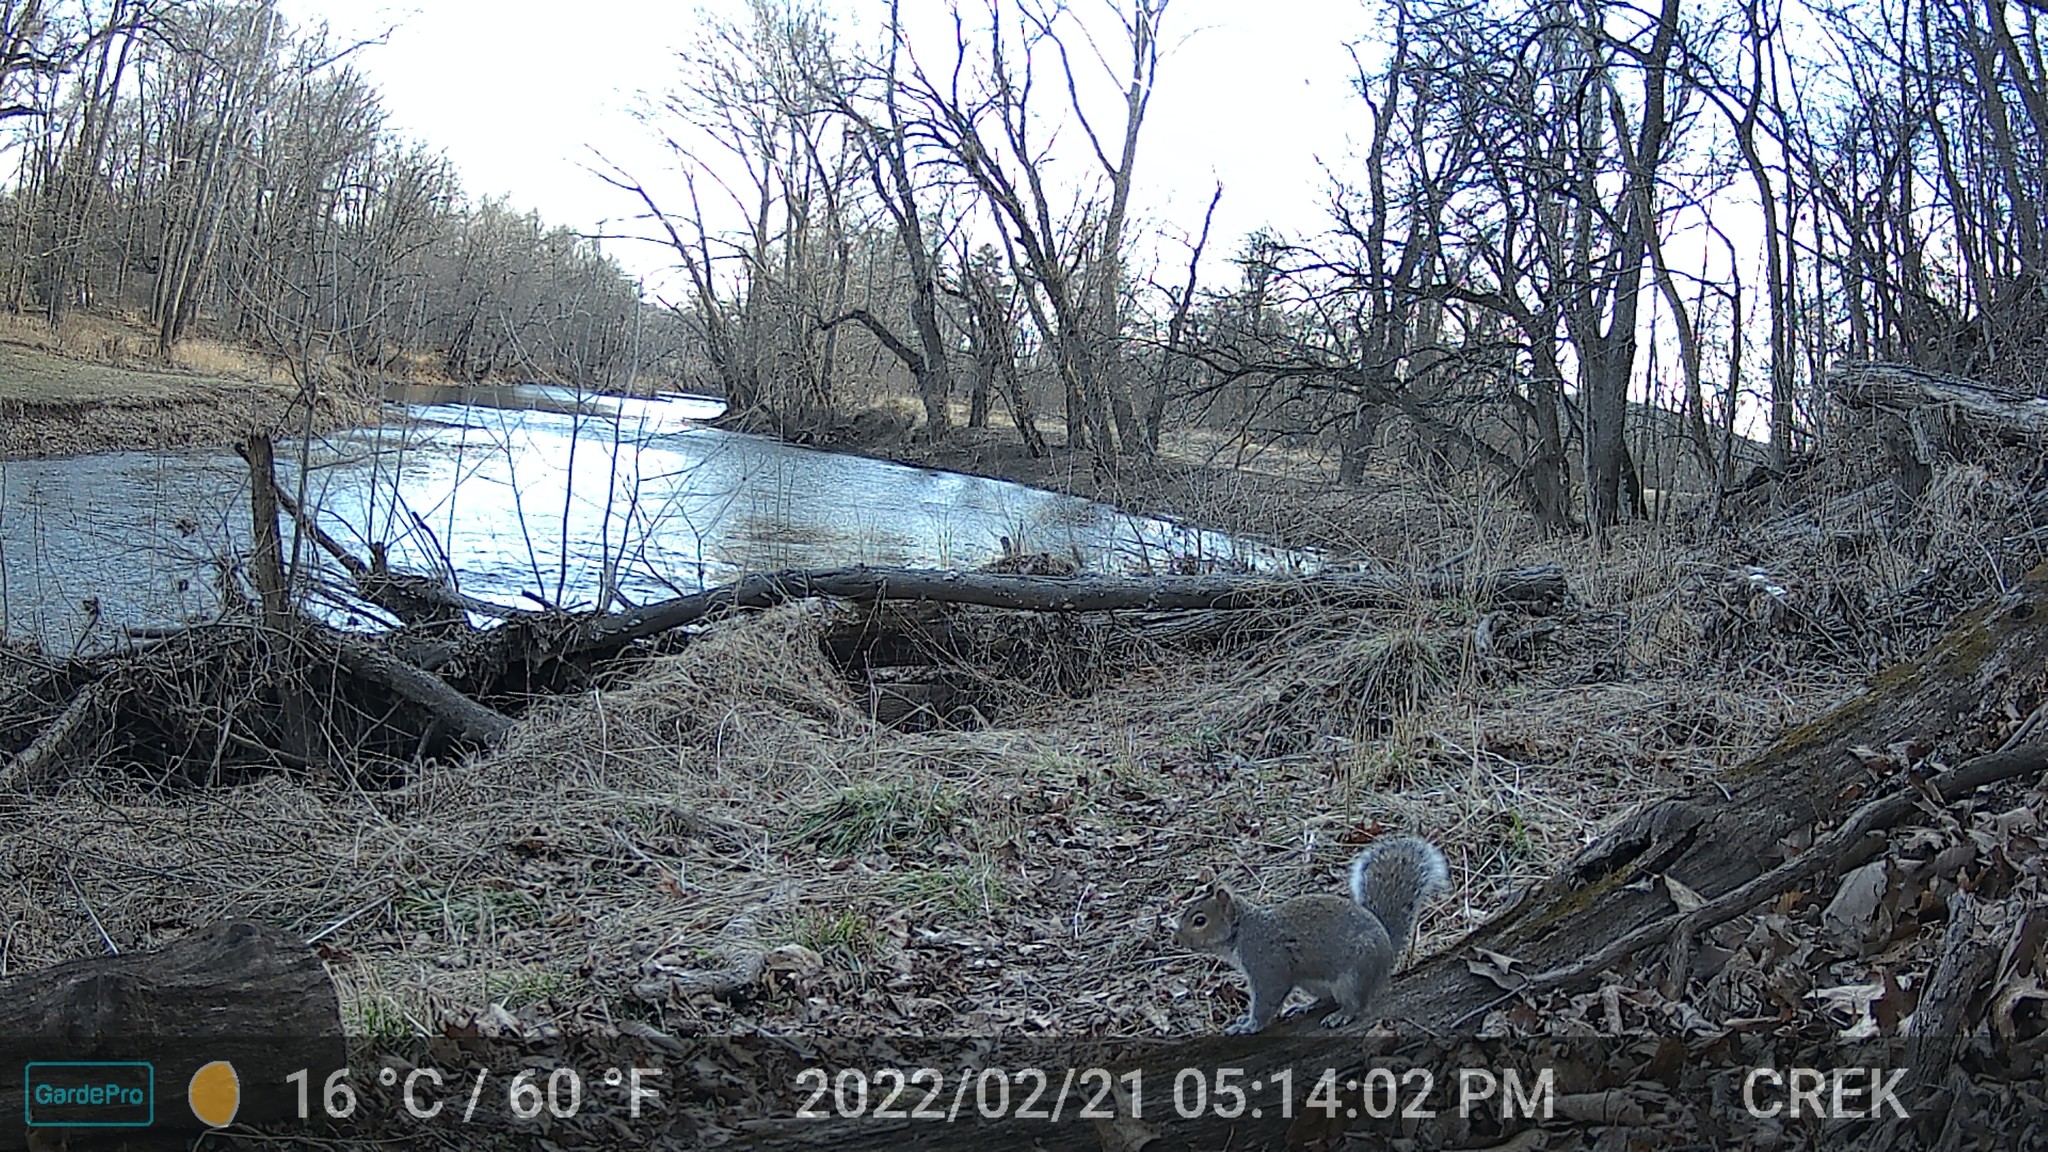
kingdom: Animalia
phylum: Chordata
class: Mammalia
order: Rodentia
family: Sciuridae
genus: Sciurus
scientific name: Sciurus carolinensis
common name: Eastern gray squirrel
